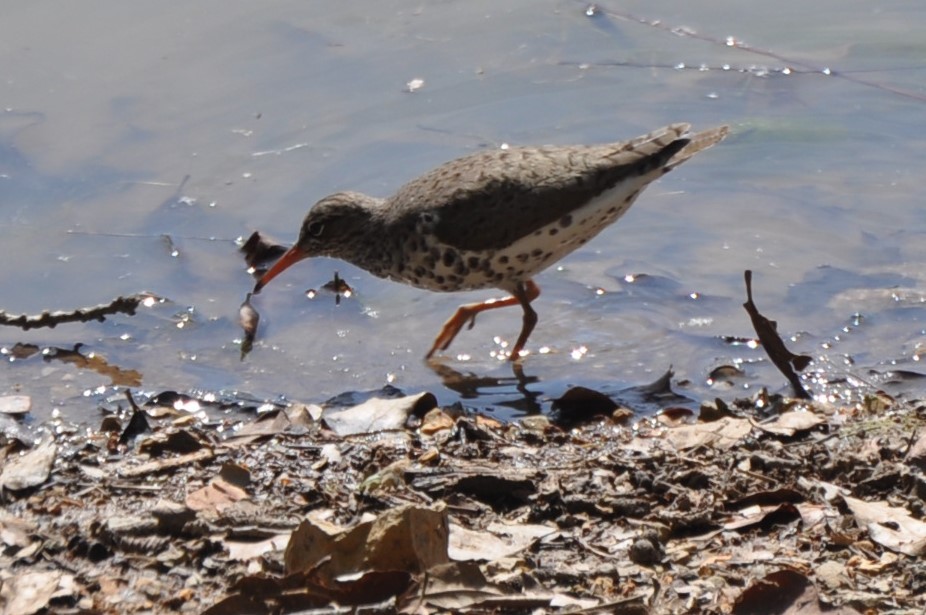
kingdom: Animalia
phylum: Chordata
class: Aves
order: Charadriiformes
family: Scolopacidae
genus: Actitis
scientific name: Actitis macularius
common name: Spotted sandpiper
